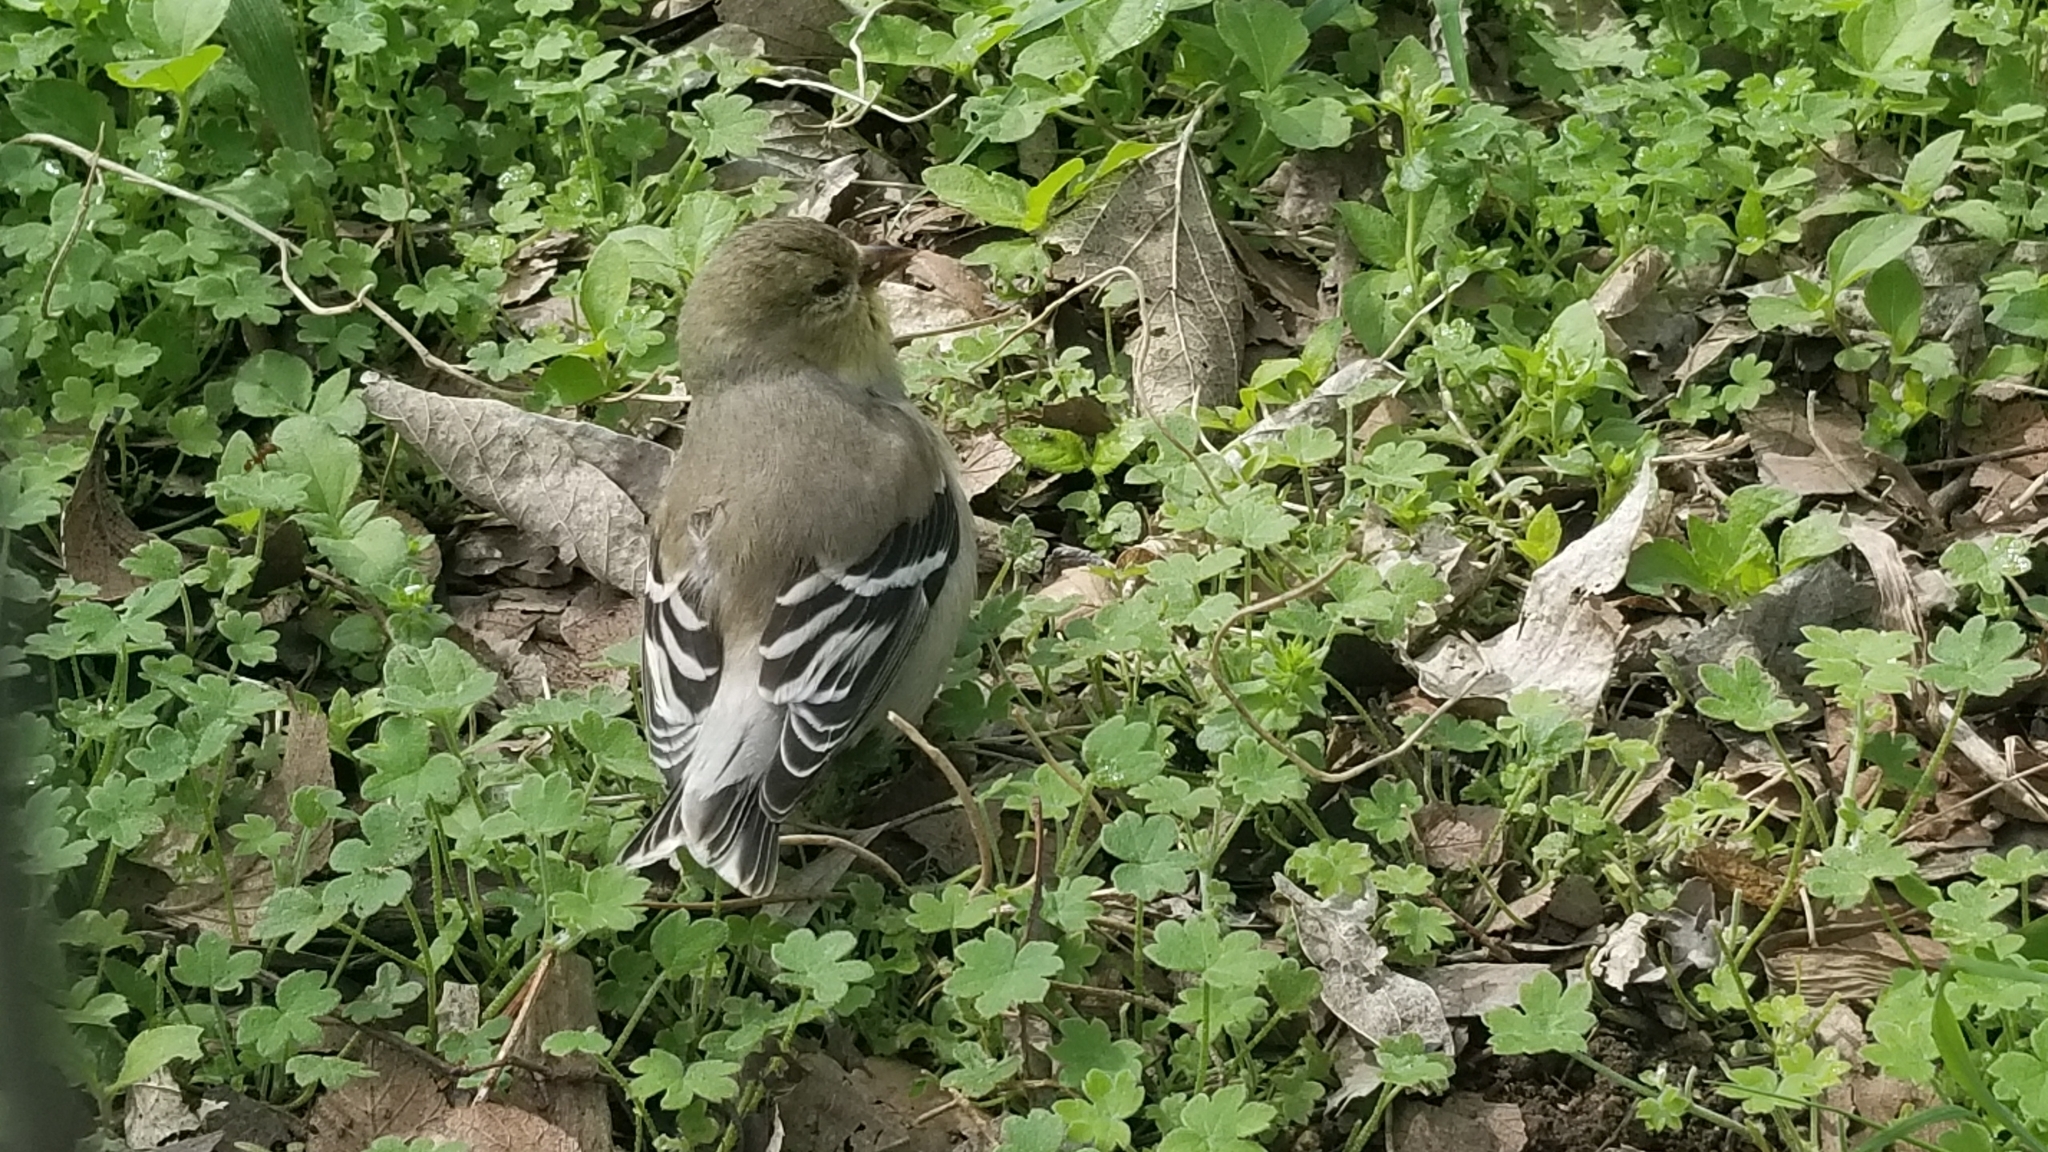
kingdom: Animalia
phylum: Chordata
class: Aves
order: Passeriformes
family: Fringillidae
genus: Spinus
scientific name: Spinus tristis
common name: American goldfinch
